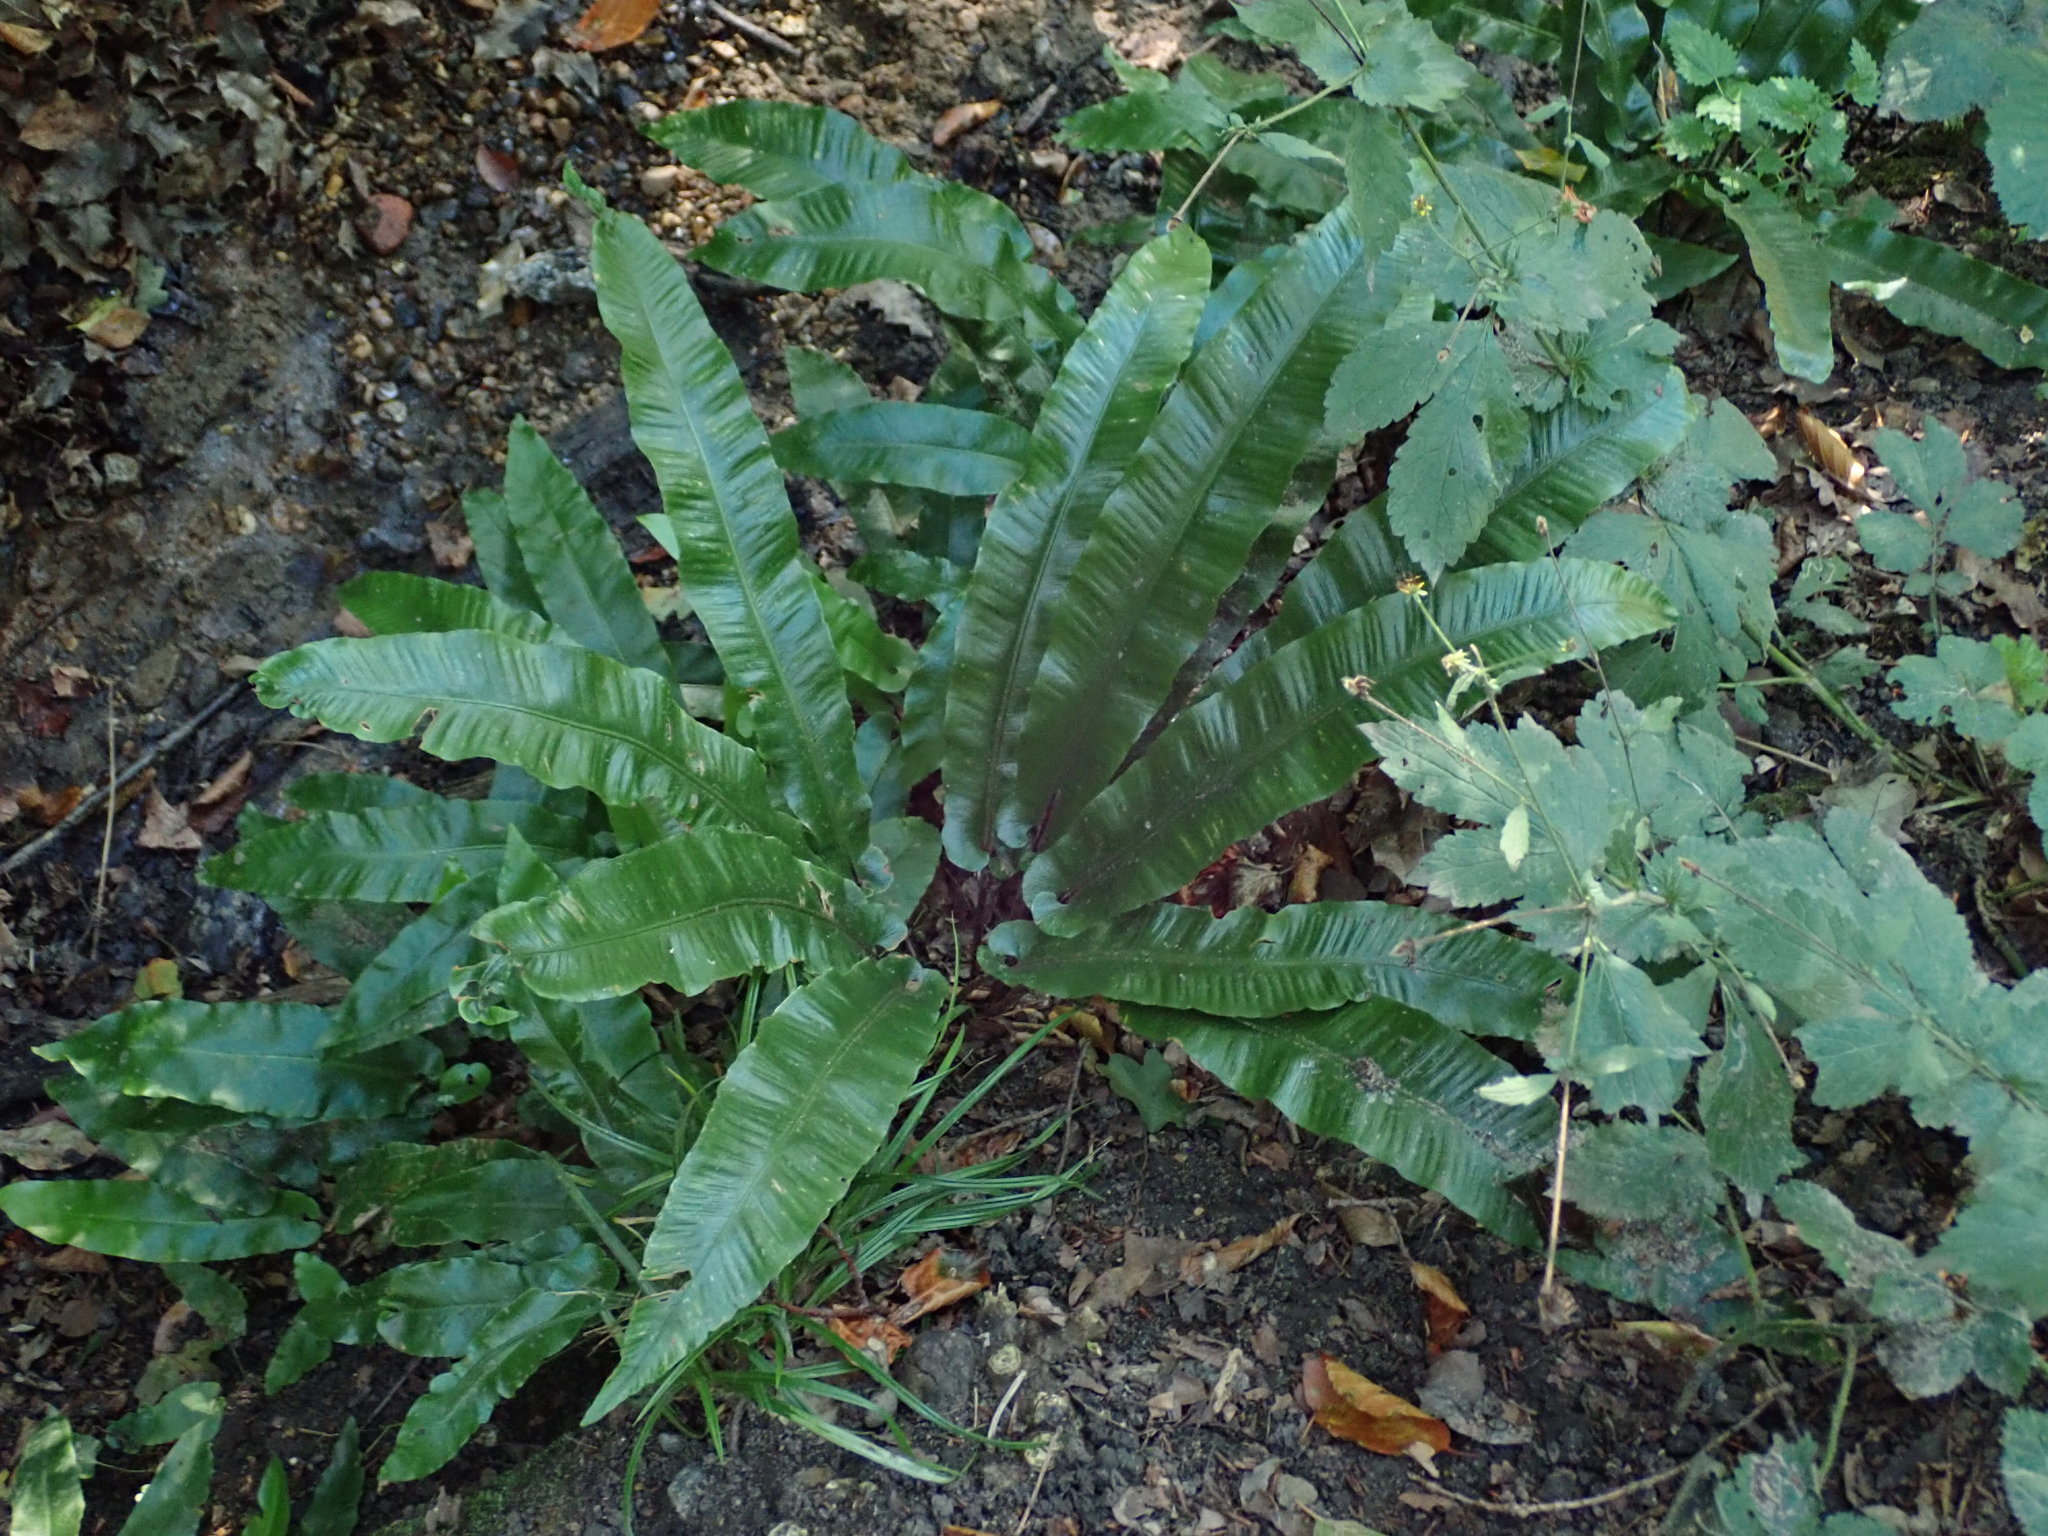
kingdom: Plantae
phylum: Tracheophyta
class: Polypodiopsida
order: Polypodiales
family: Aspleniaceae
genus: Asplenium
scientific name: Asplenium scolopendrium
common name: Hart's-tongue fern
